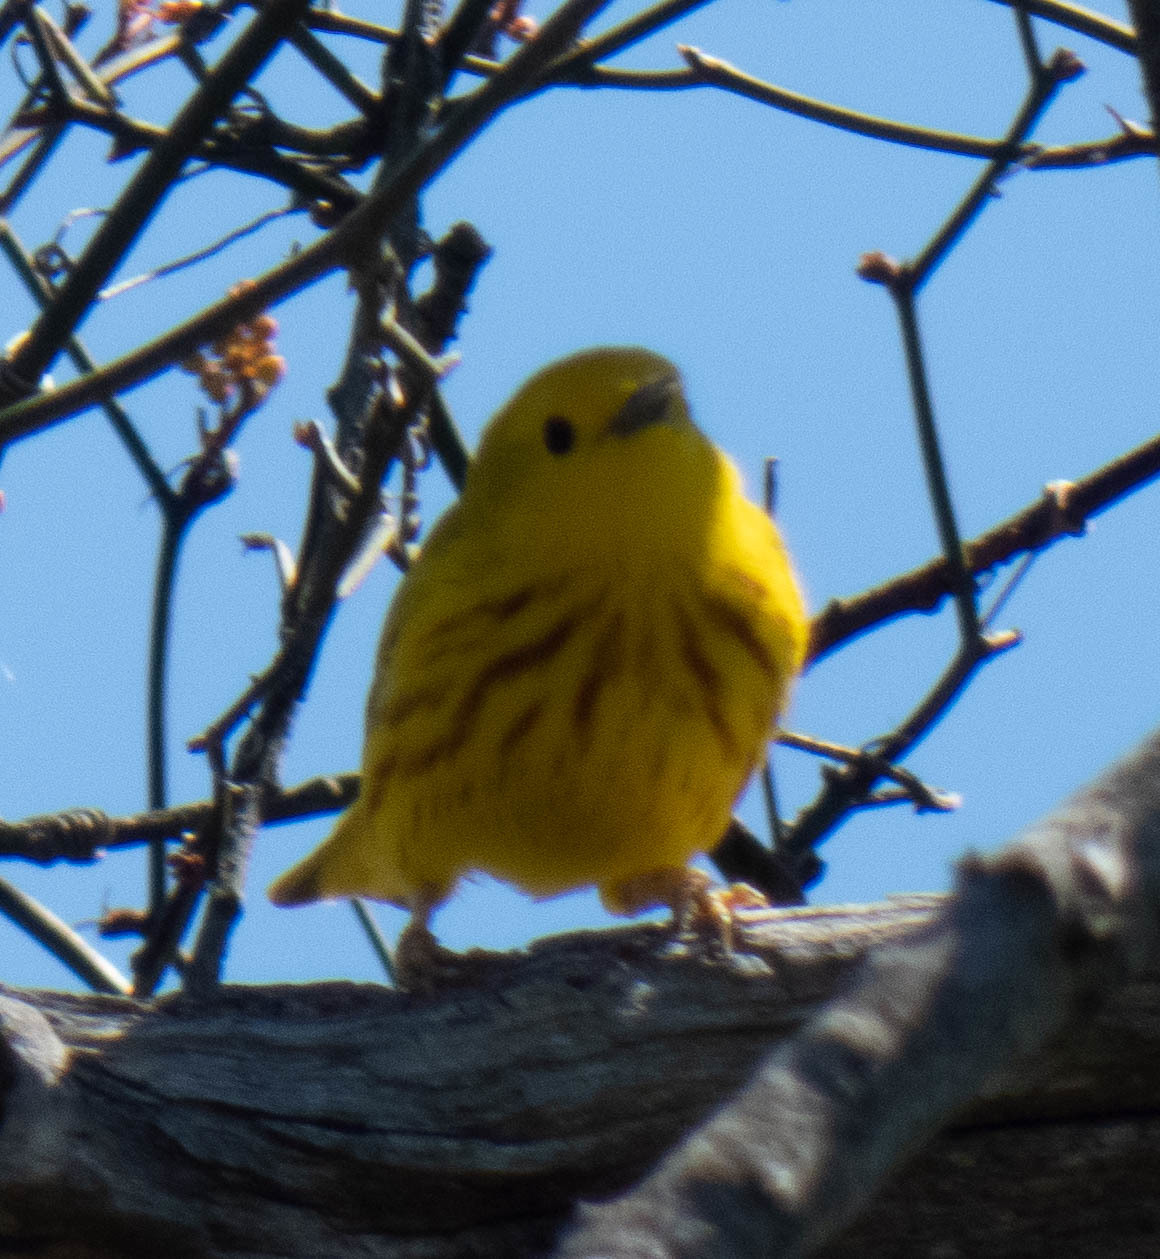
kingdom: Animalia
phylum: Chordata
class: Aves
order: Passeriformes
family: Parulidae
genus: Setophaga
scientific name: Setophaga petechia
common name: Yellow warbler
